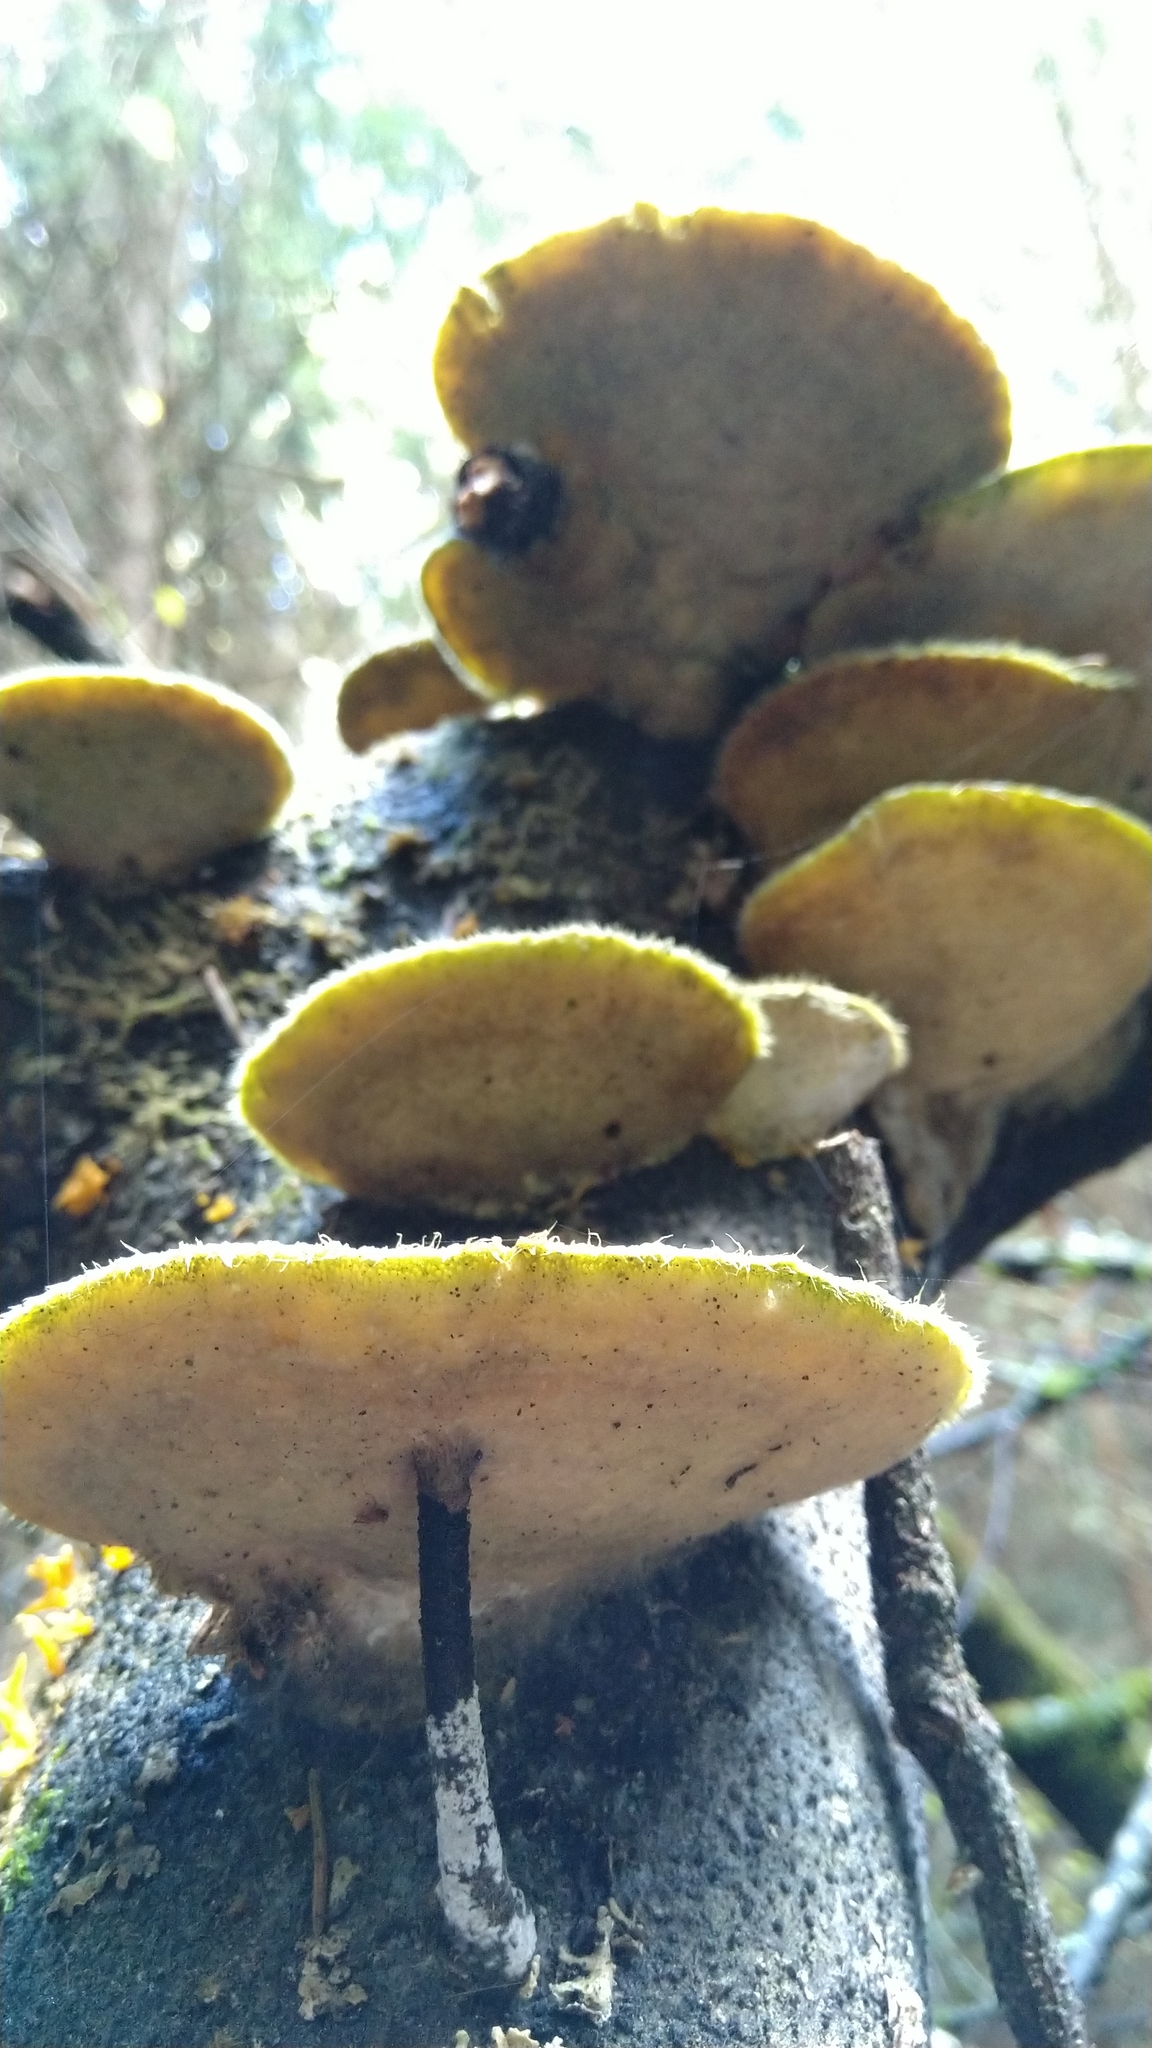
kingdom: Fungi
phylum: Basidiomycota
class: Agaricomycetes
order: Polyporales
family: Polyporaceae
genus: Trametes
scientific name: Trametes hirsuta
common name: Hairy bracket
